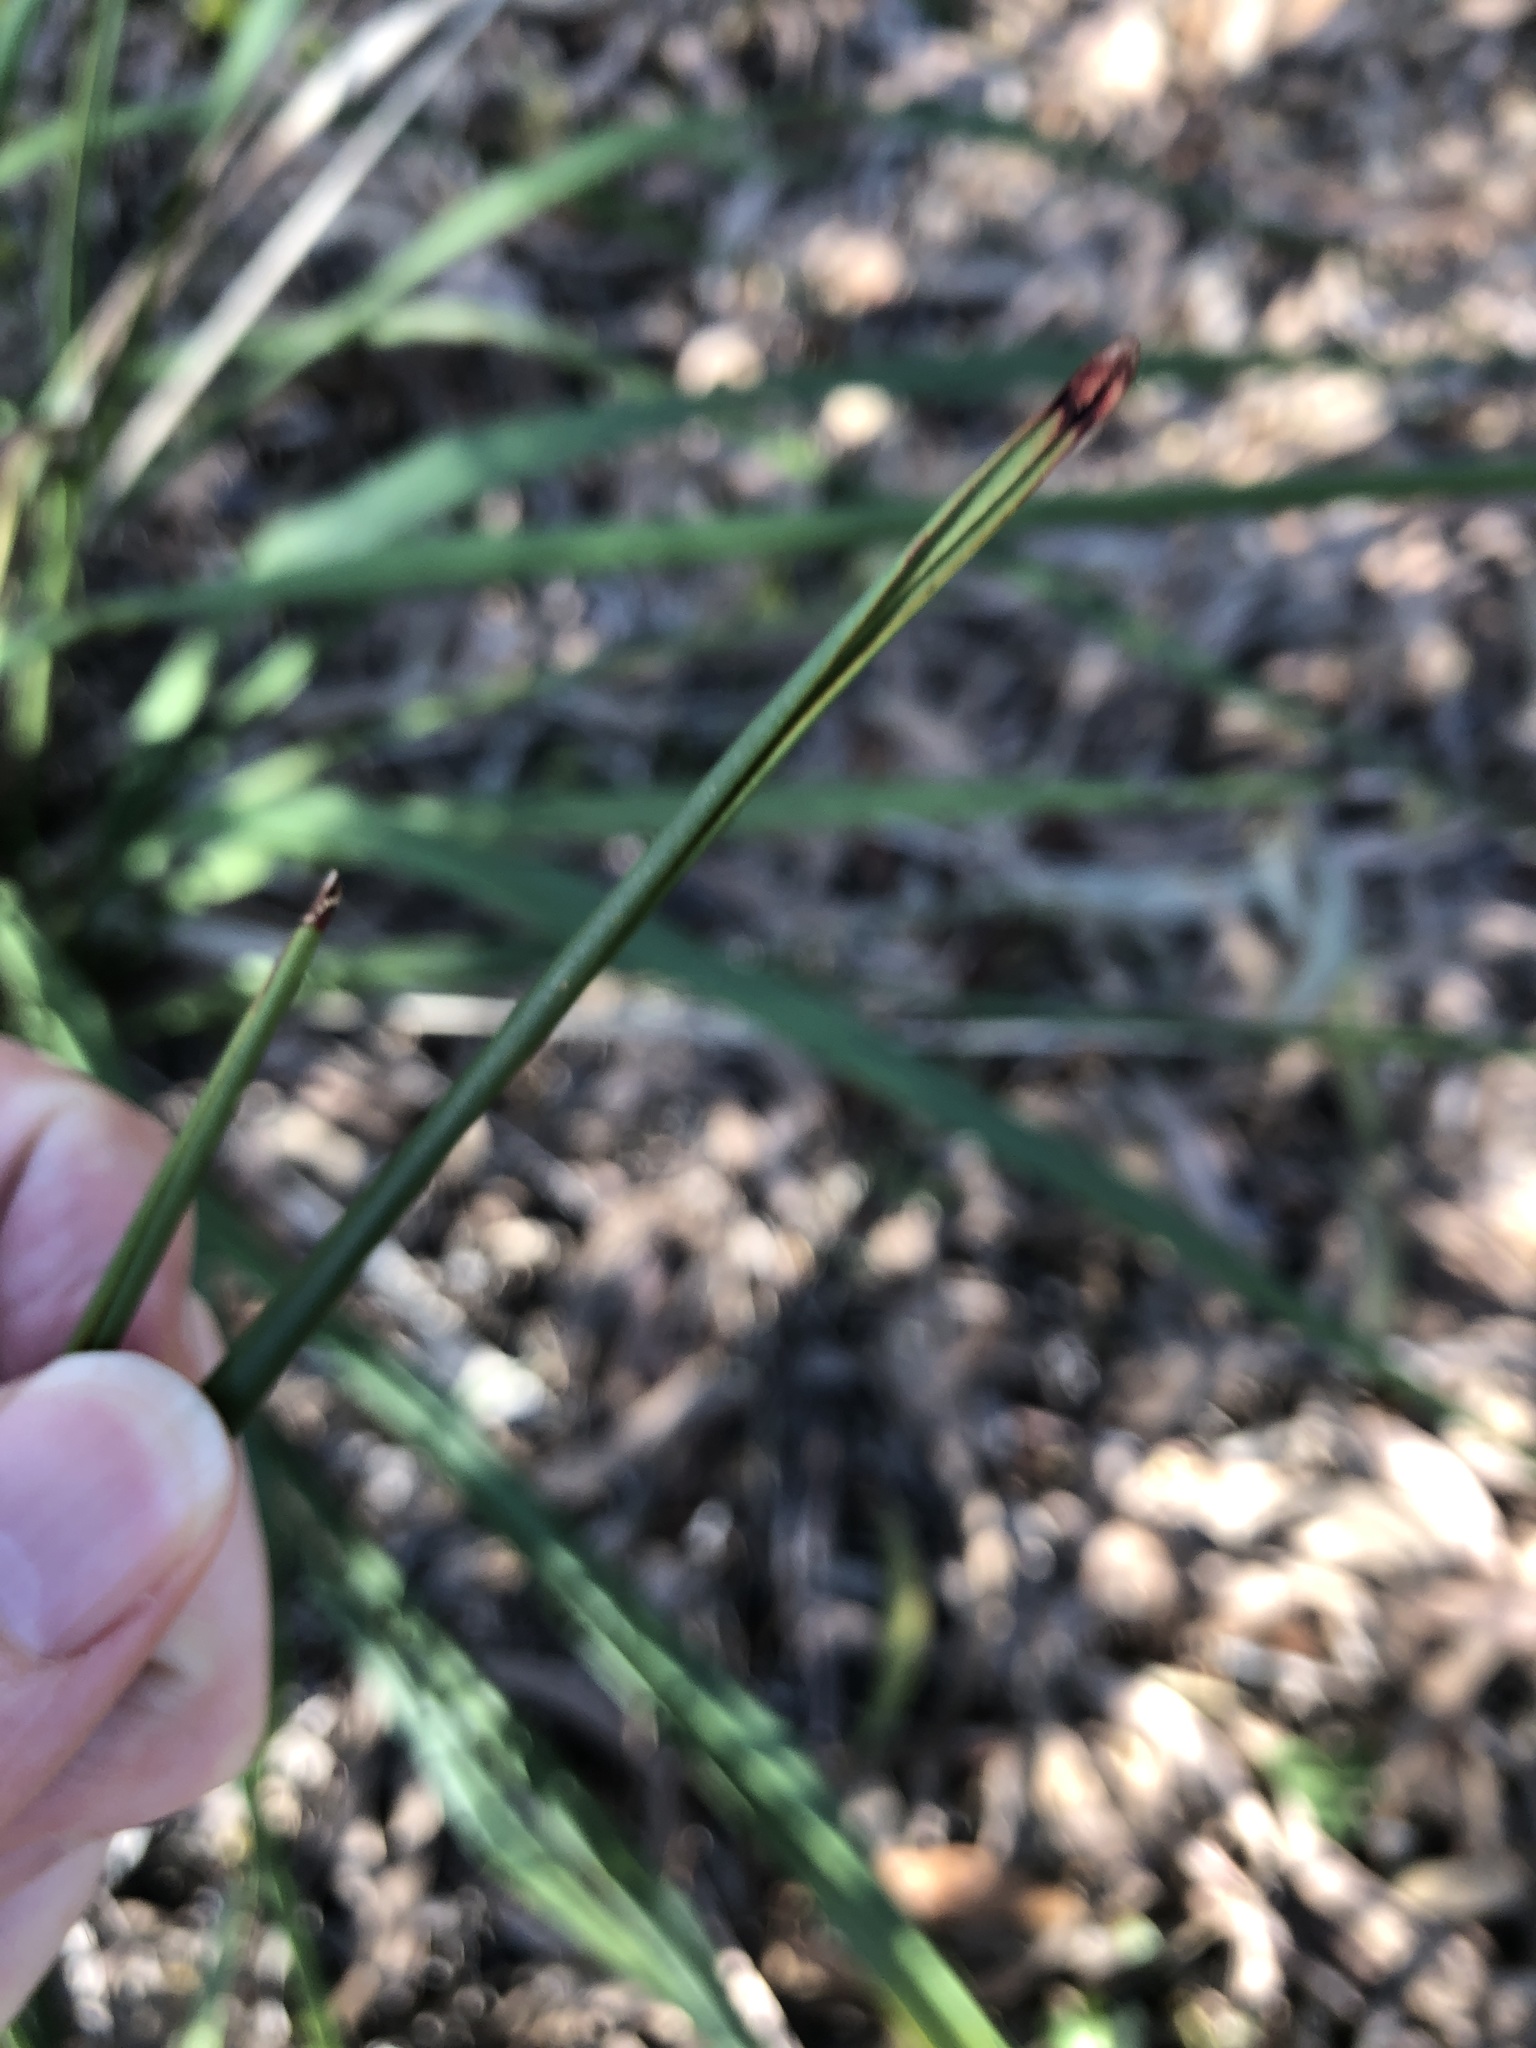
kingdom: Plantae
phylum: Tracheophyta
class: Liliopsida
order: Asparagales
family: Asphodelaceae
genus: Dianella
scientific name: Dianella brevipedunculata
